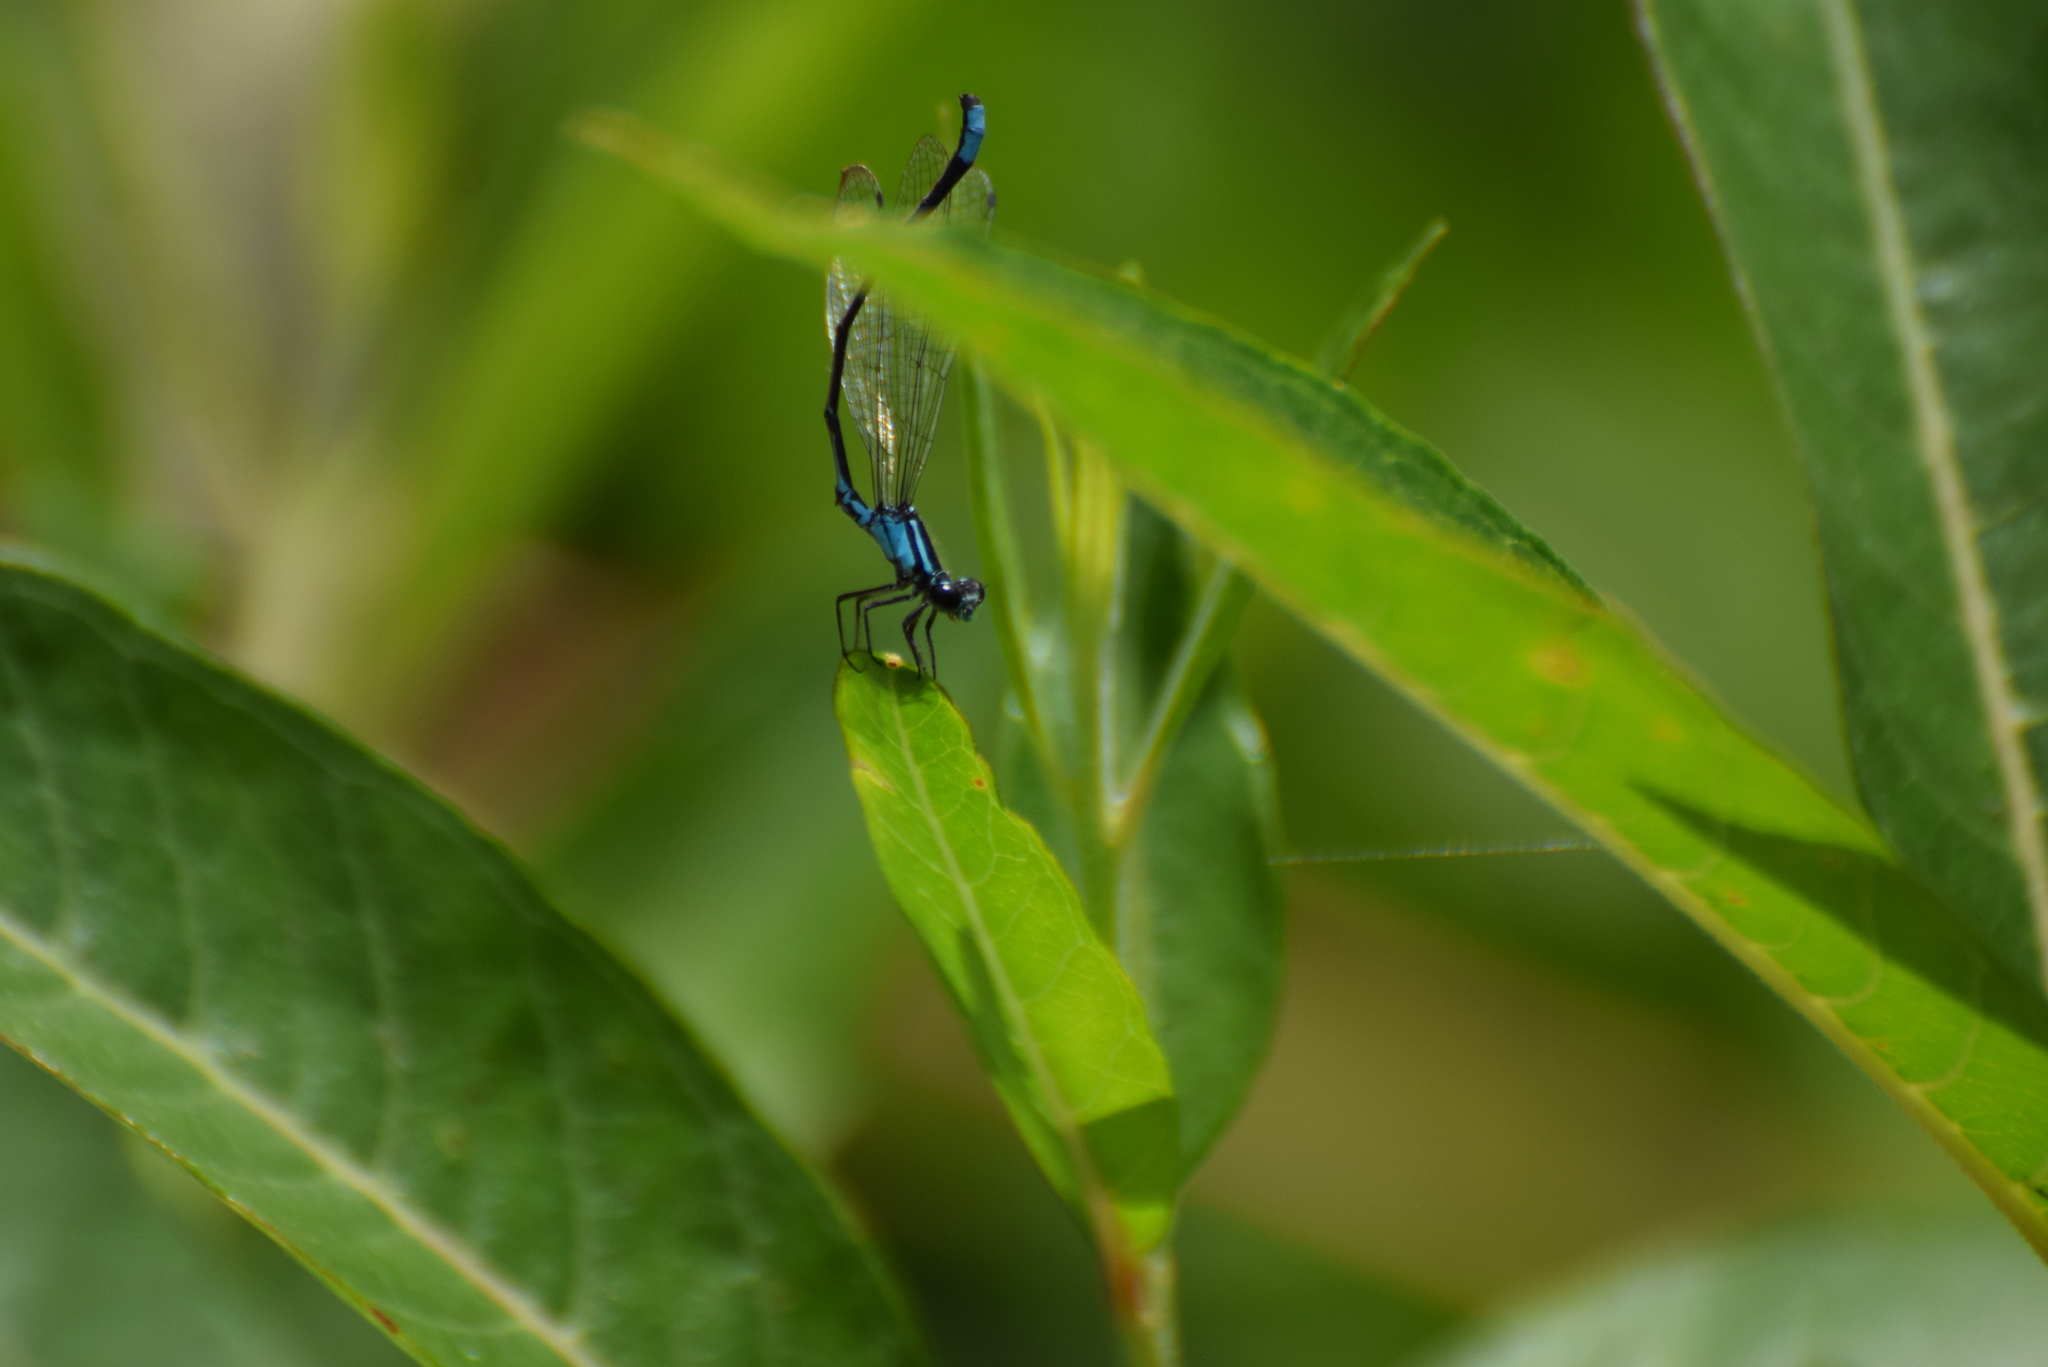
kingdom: Animalia
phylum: Arthropoda
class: Insecta
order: Odonata
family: Coenagrionidae
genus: Enallagma
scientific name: Enallagma geminatum
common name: Skimming bluet
